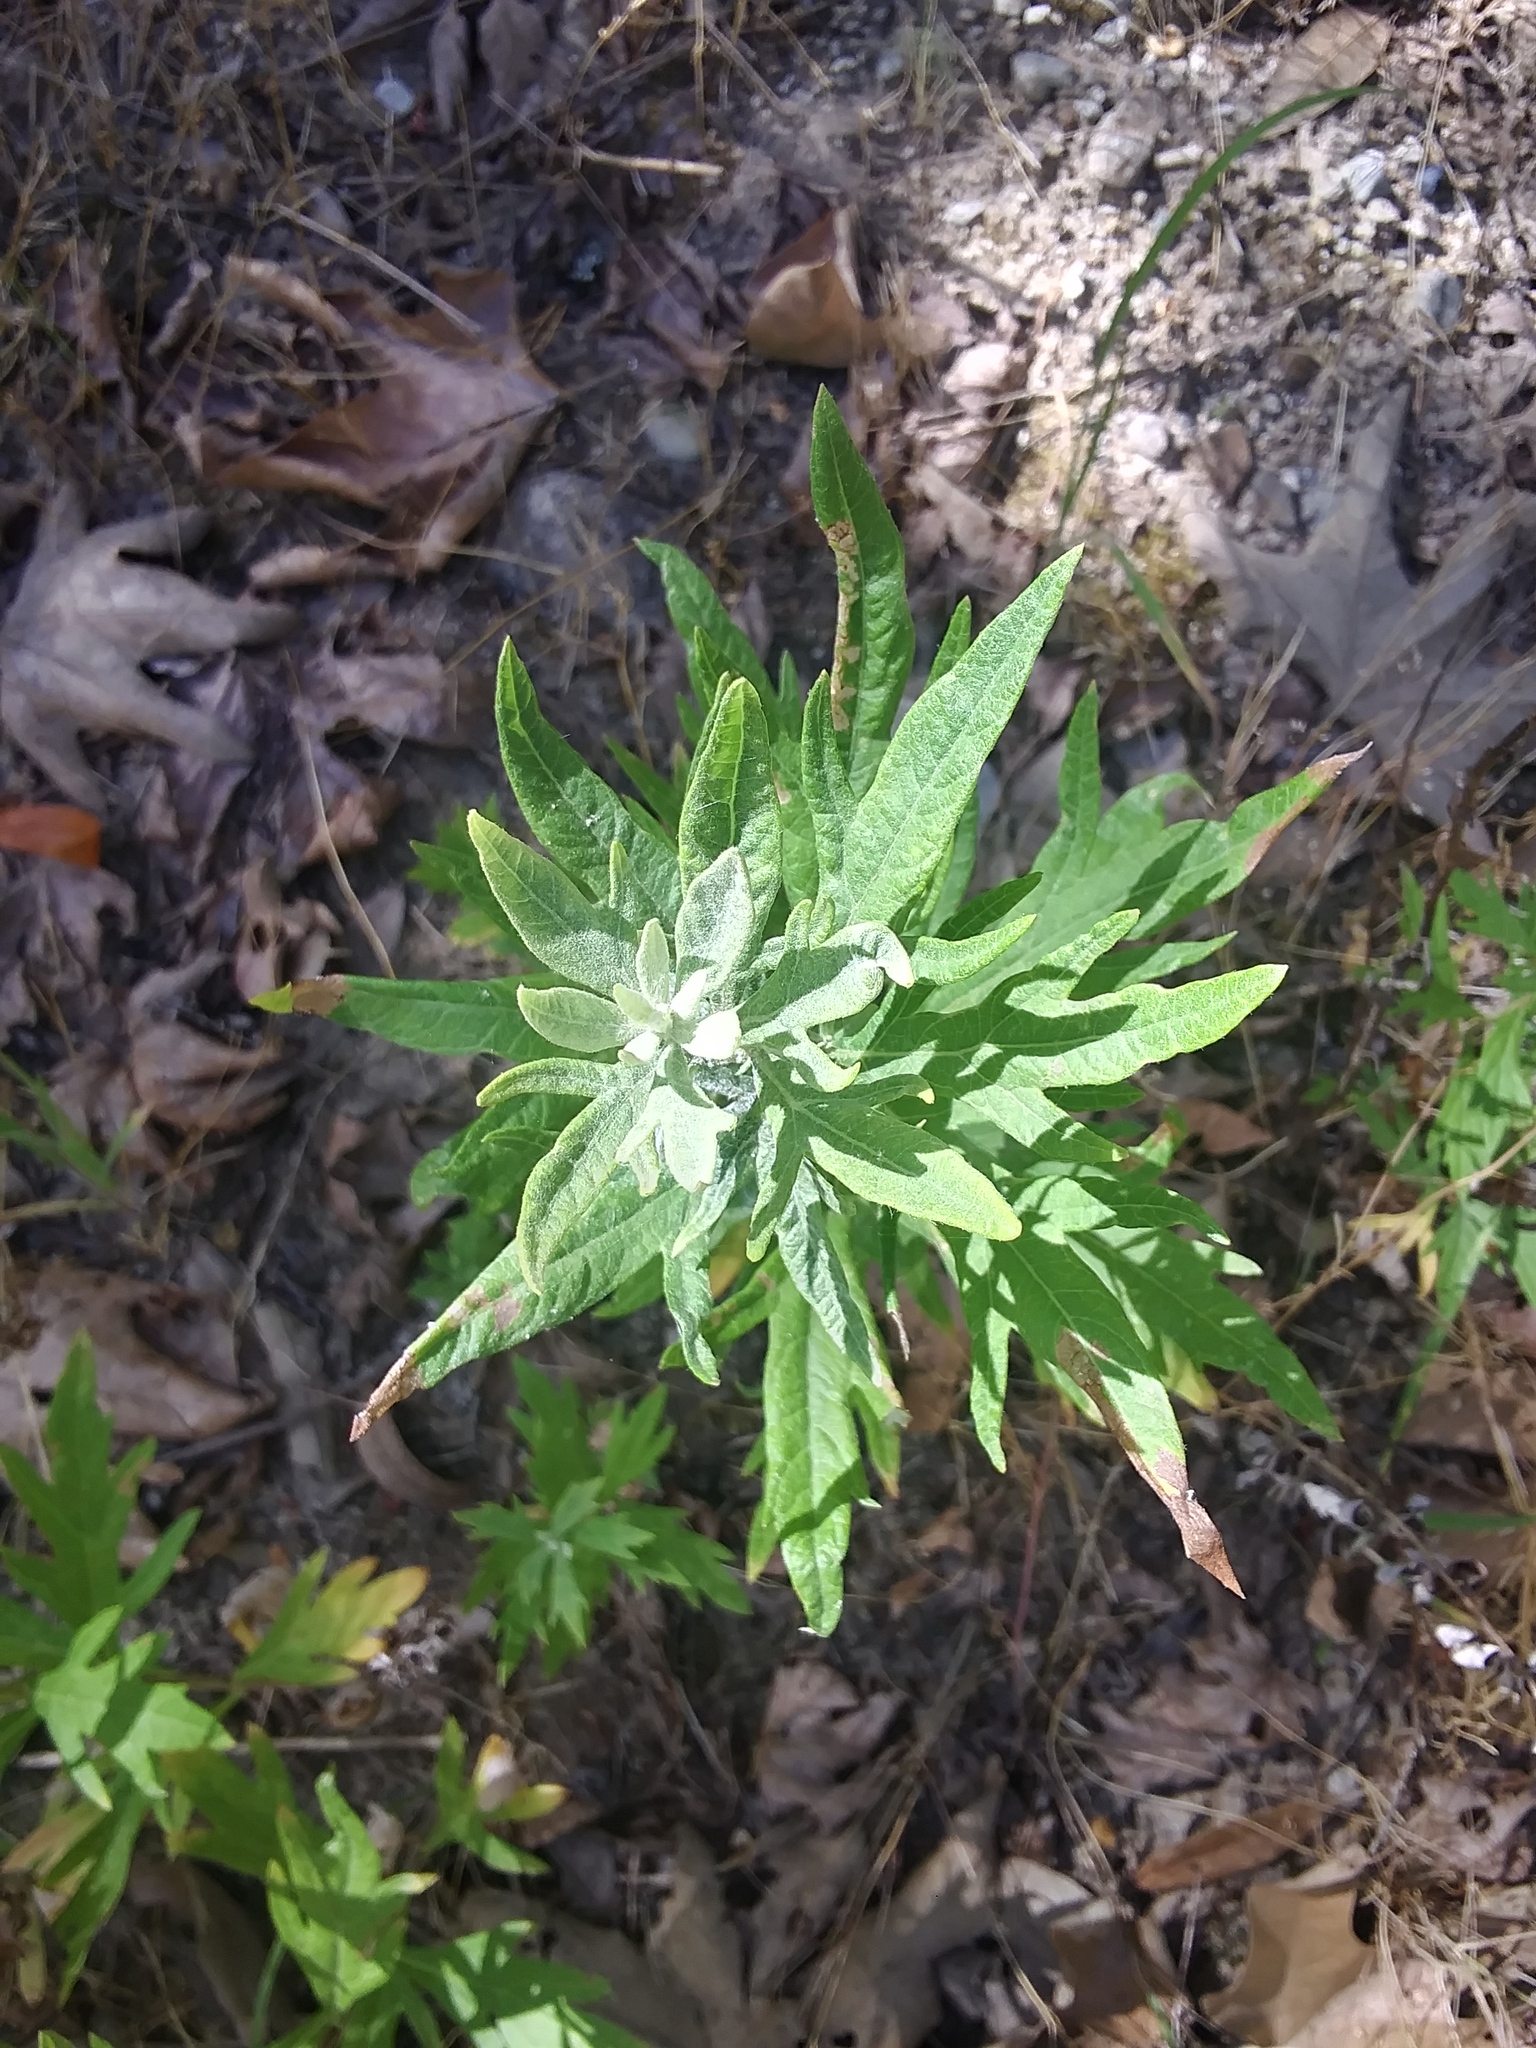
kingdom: Plantae
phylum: Tracheophyta
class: Magnoliopsida
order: Asterales
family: Asteraceae
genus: Artemisia
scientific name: Artemisia douglasiana
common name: Northwest mugwort
